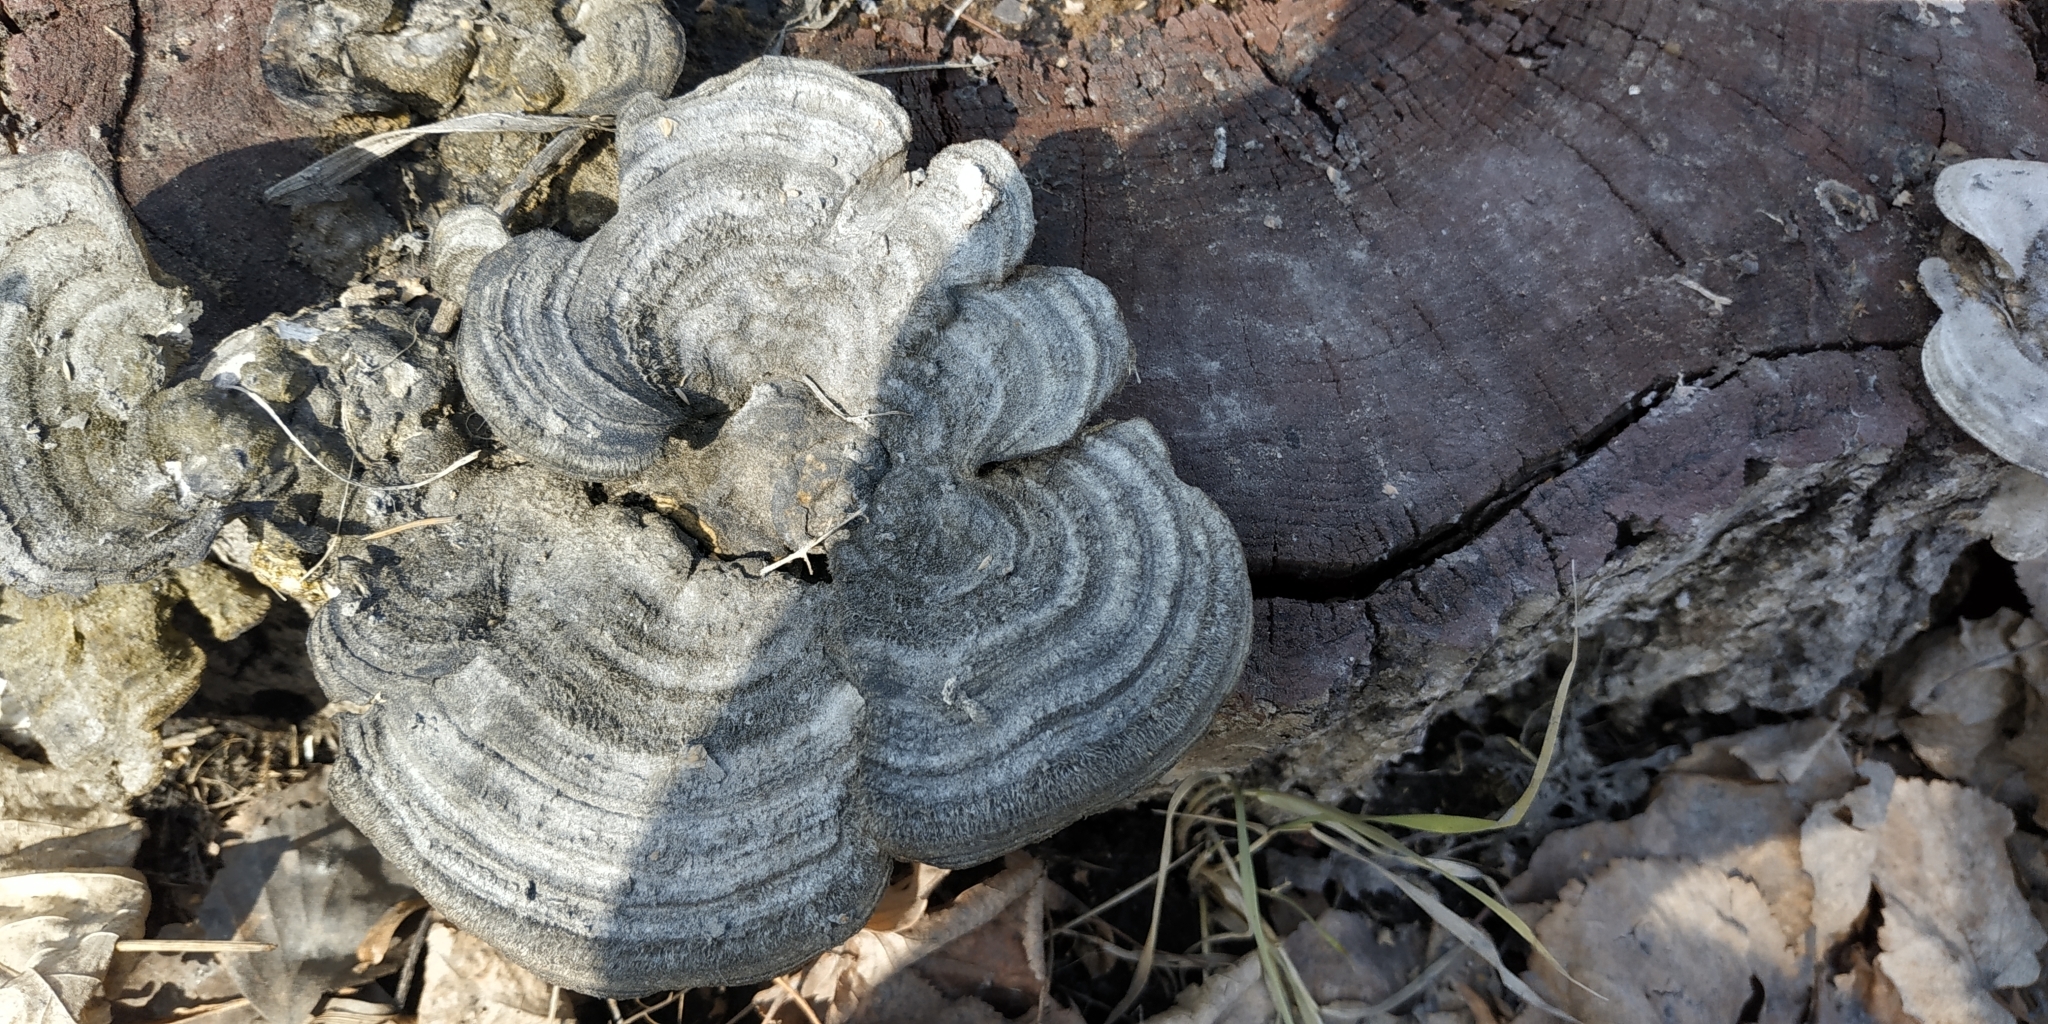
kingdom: Fungi
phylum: Basidiomycota
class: Agaricomycetes
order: Polyporales
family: Polyporaceae
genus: Trametes
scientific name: Trametes hirsuta
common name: Hairy bracket
